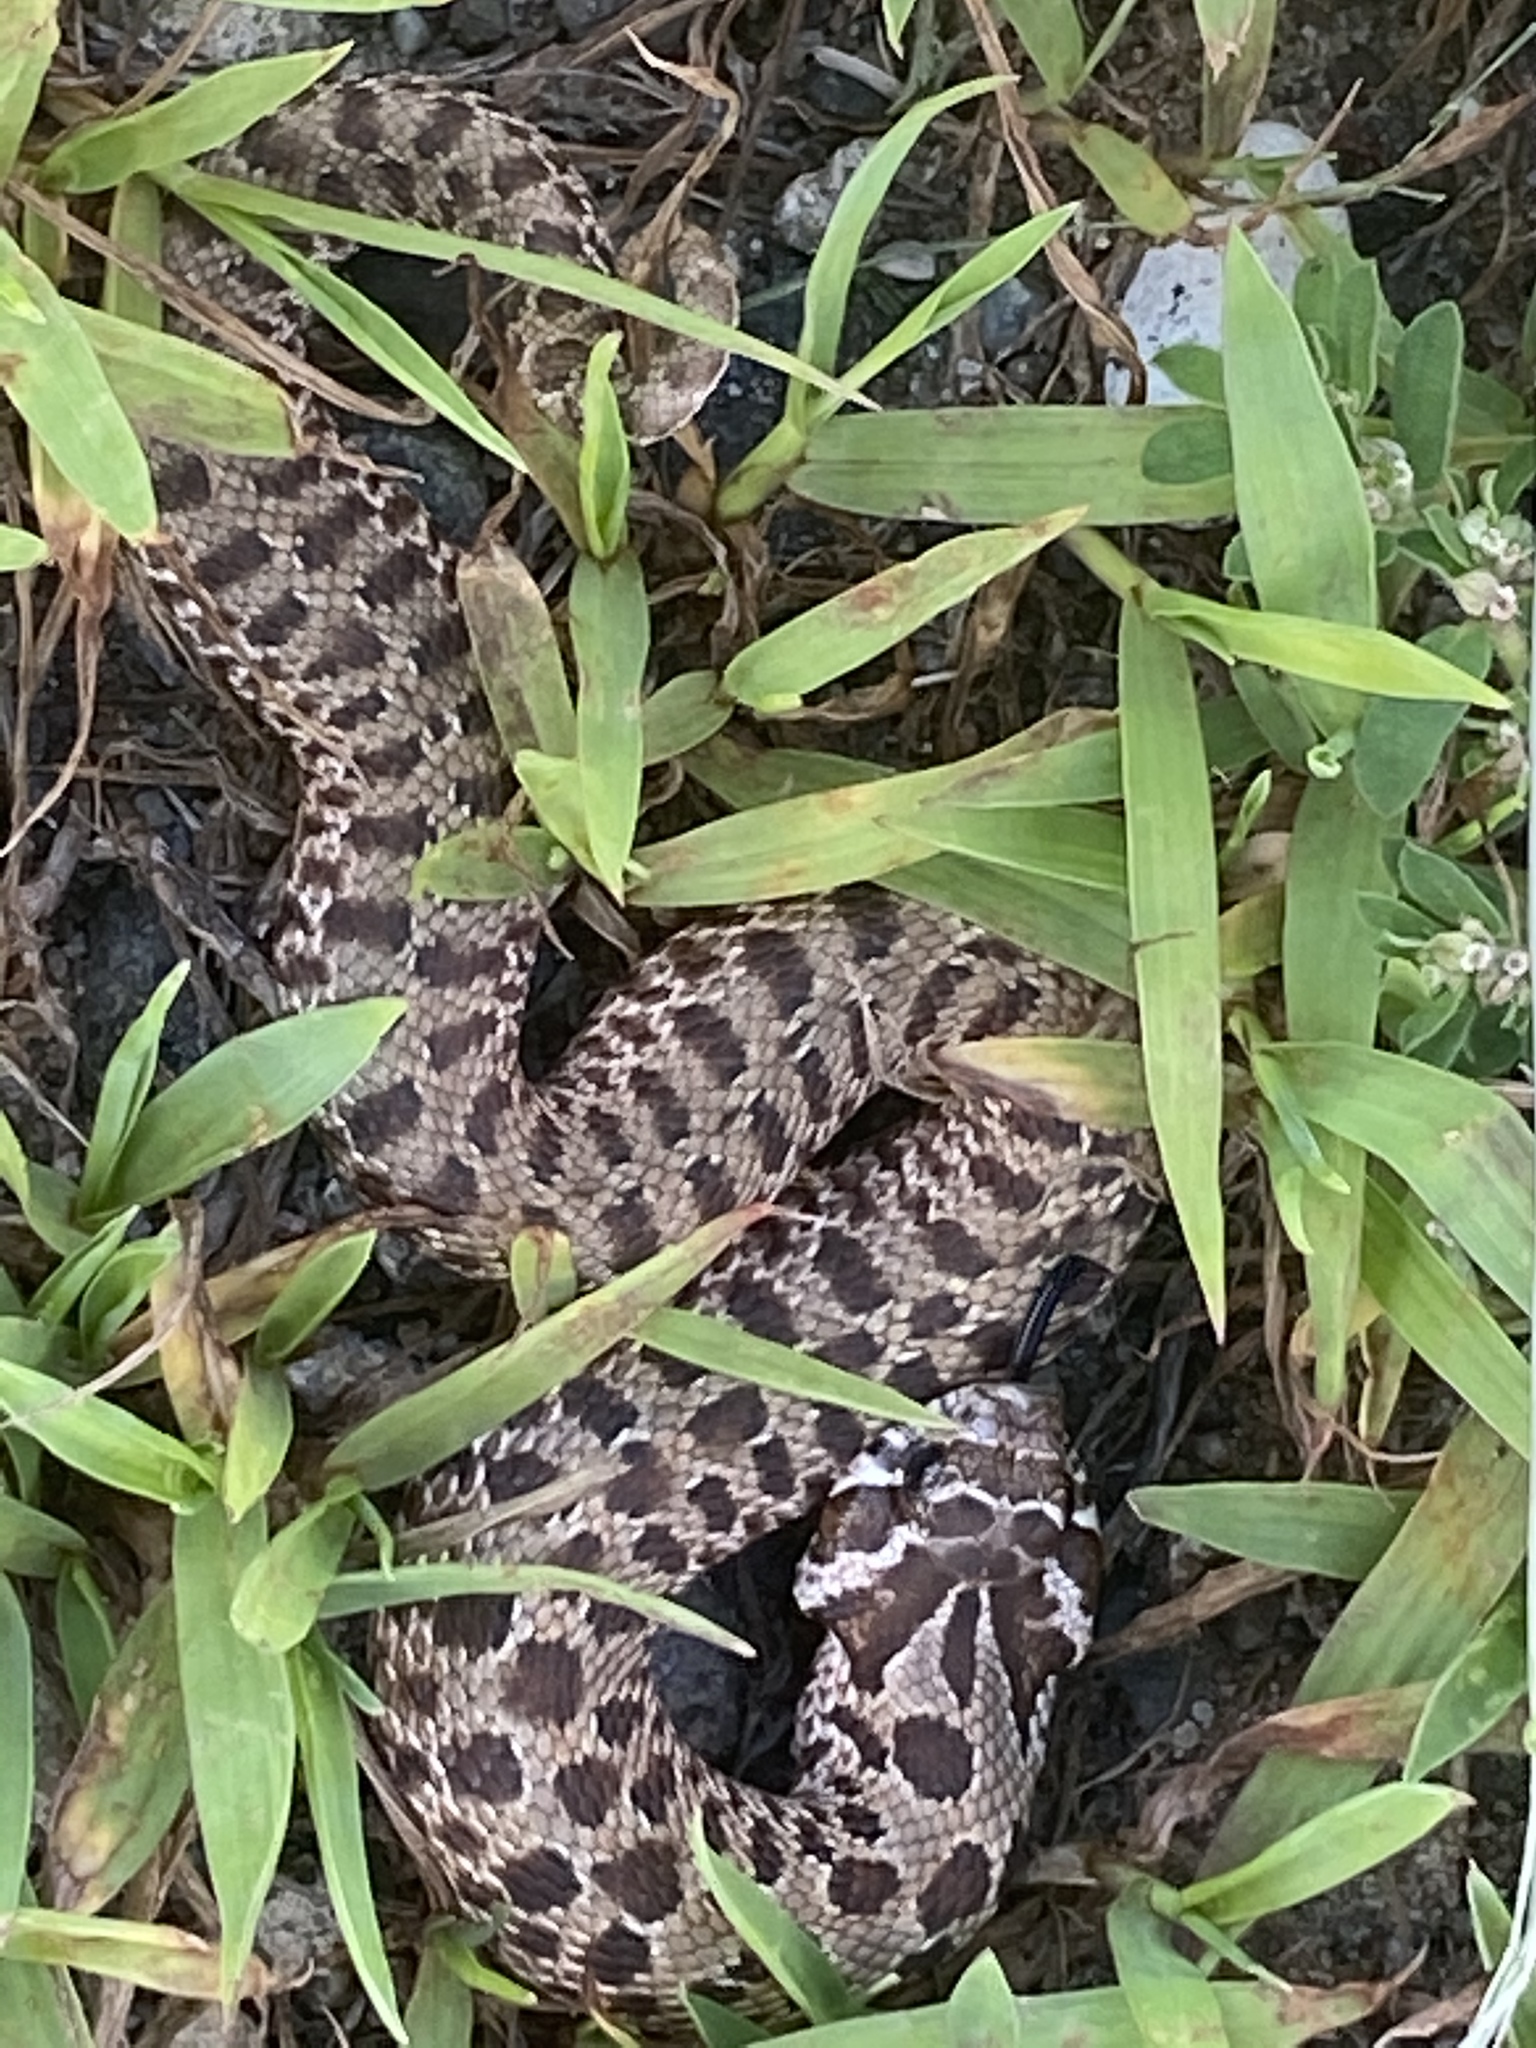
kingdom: Animalia
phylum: Chordata
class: Squamata
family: Colubridae
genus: Heterodon
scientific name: Heterodon nasicus
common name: Western hognose snake
